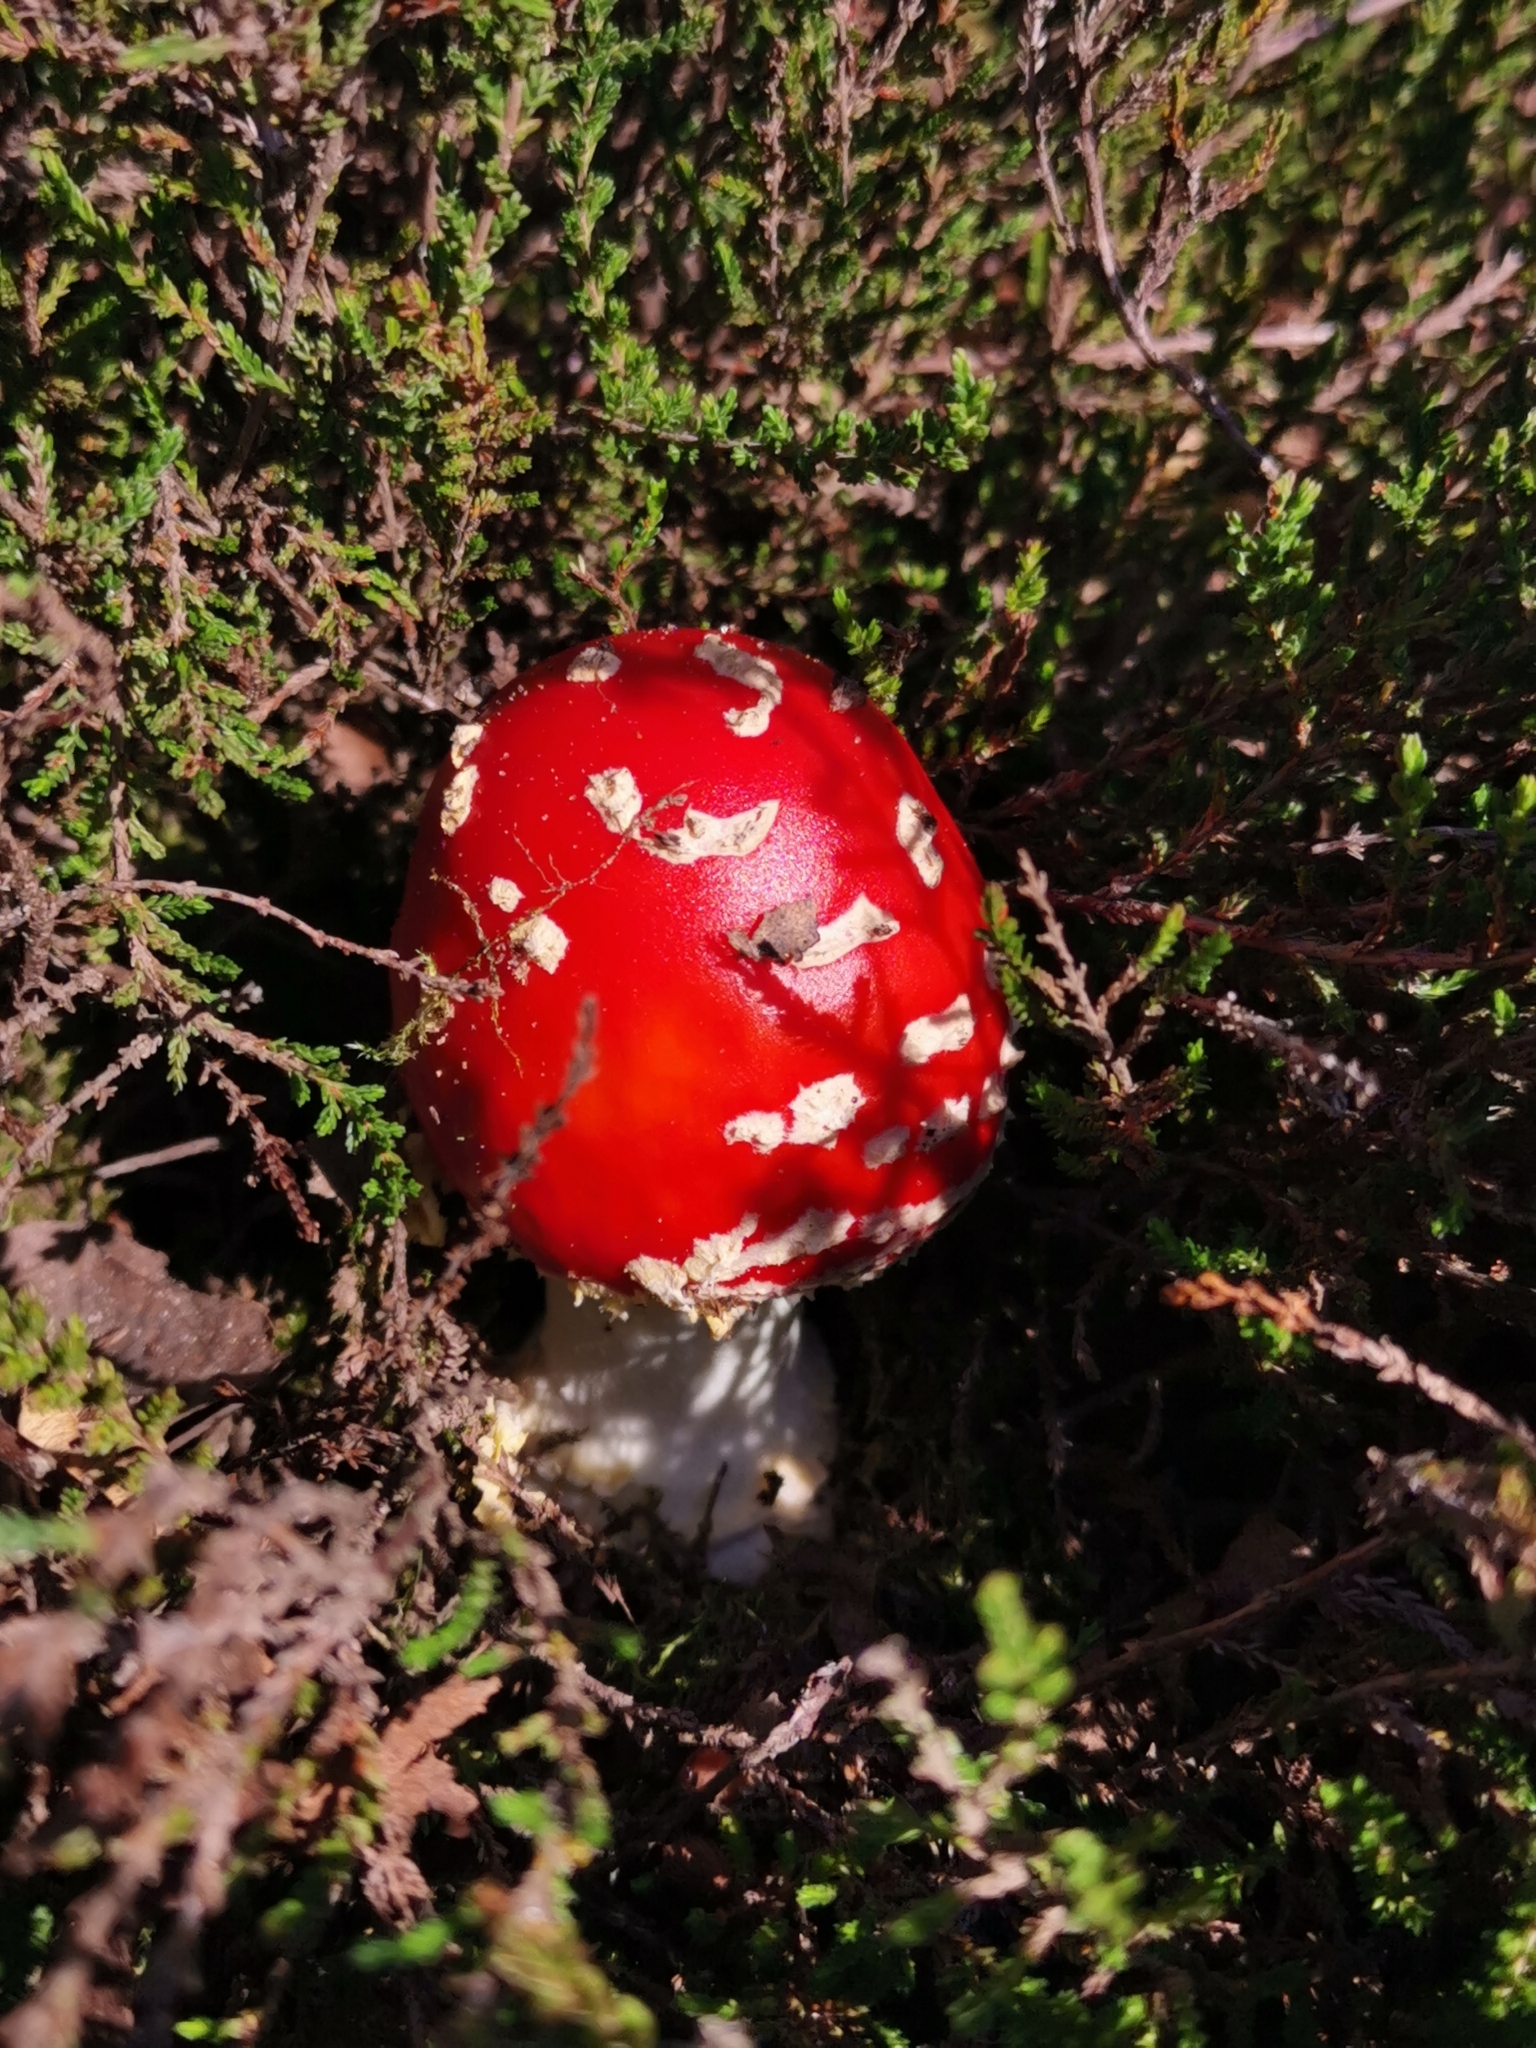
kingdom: Fungi
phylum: Basidiomycota
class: Agaricomycetes
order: Agaricales
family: Amanitaceae
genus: Amanita
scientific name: Amanita muscaria
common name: Fly agaric
